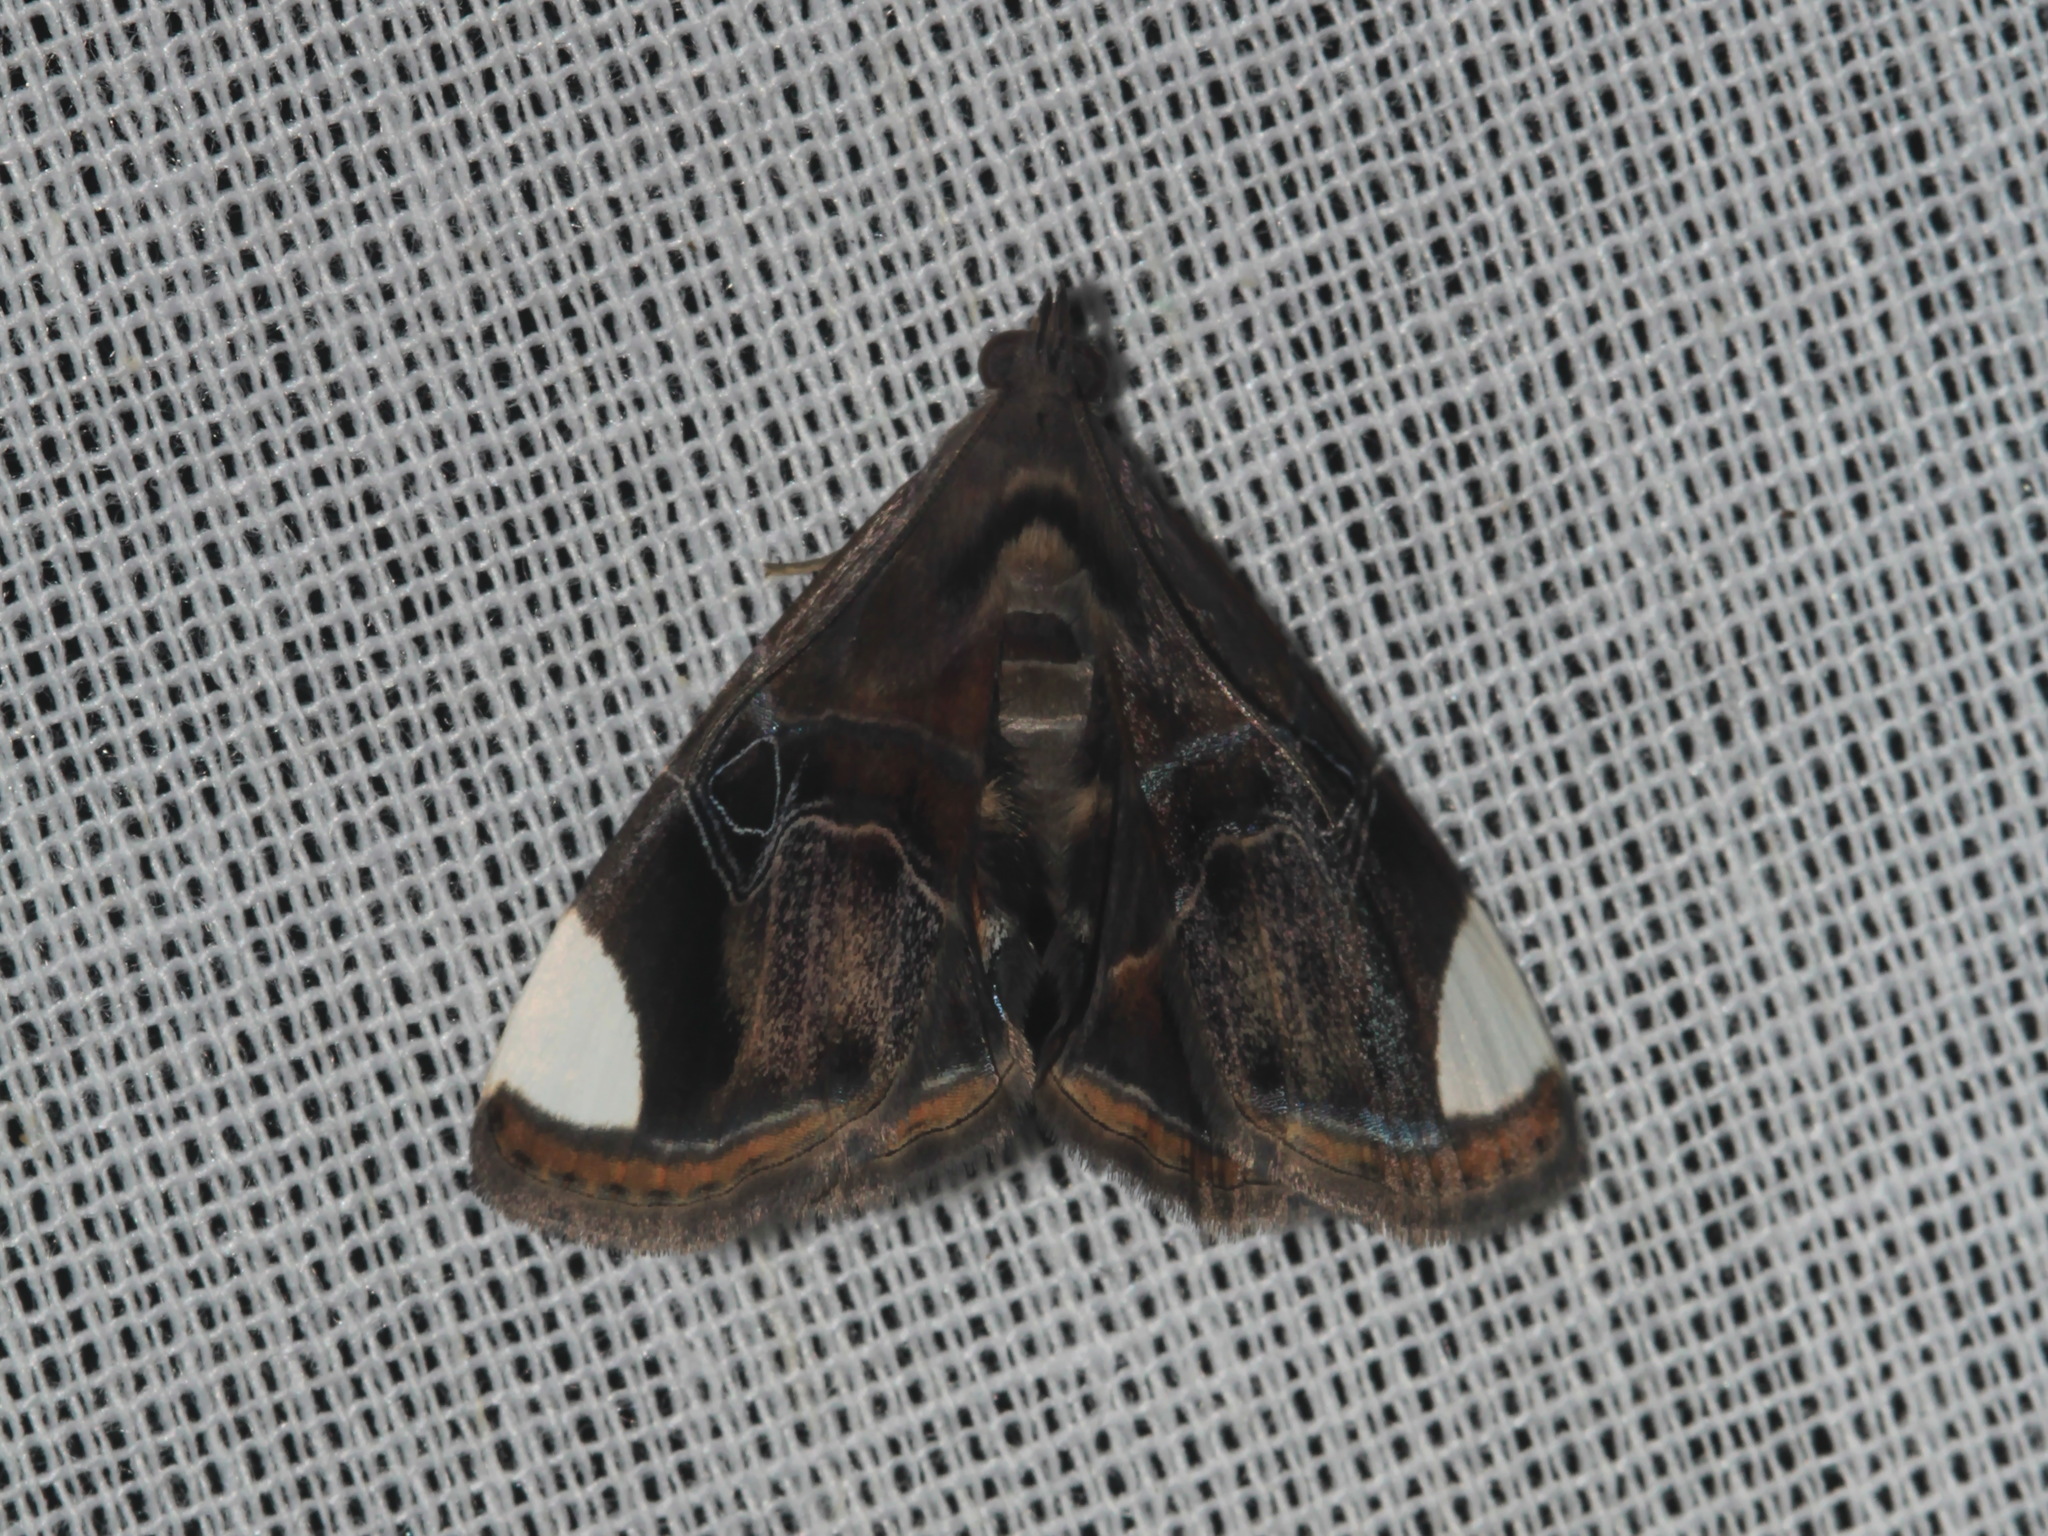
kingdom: Animalia
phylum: Arthropoda
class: Insecta
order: Lepidoptera
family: Erebidae
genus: Niphocona
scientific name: Niphocona alboapicalis
